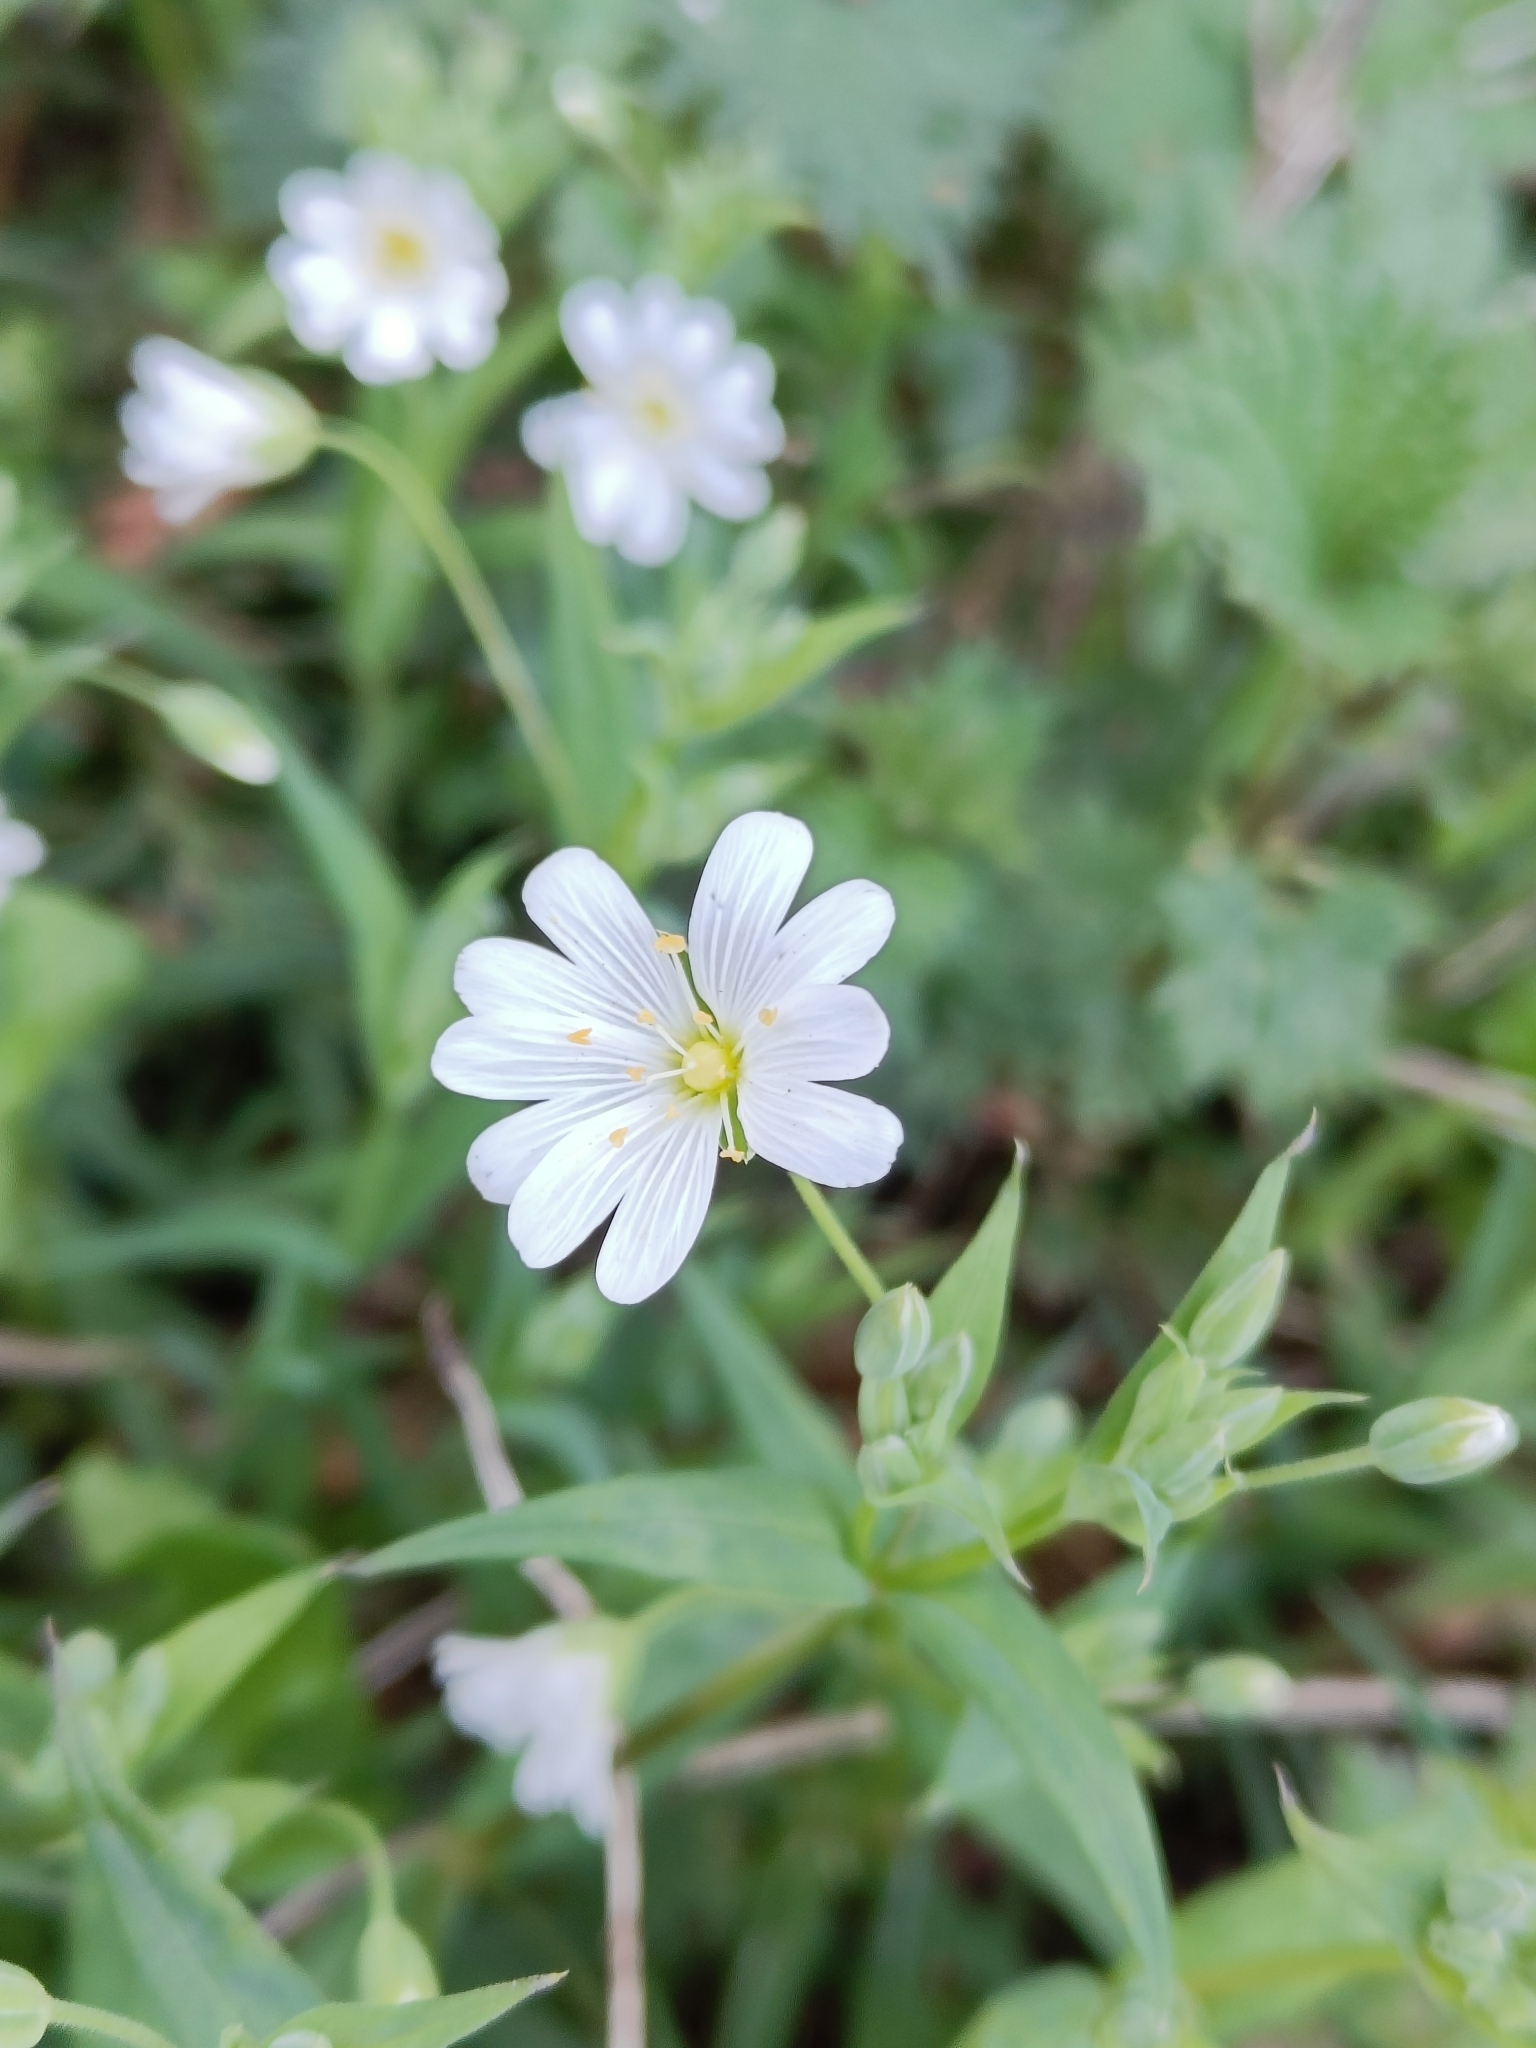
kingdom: Plantae
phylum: Tracheophyta
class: Magnoliopsida
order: Caryophyllales
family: Caryophyllaceae
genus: Rabelera
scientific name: Rabelera holostea
